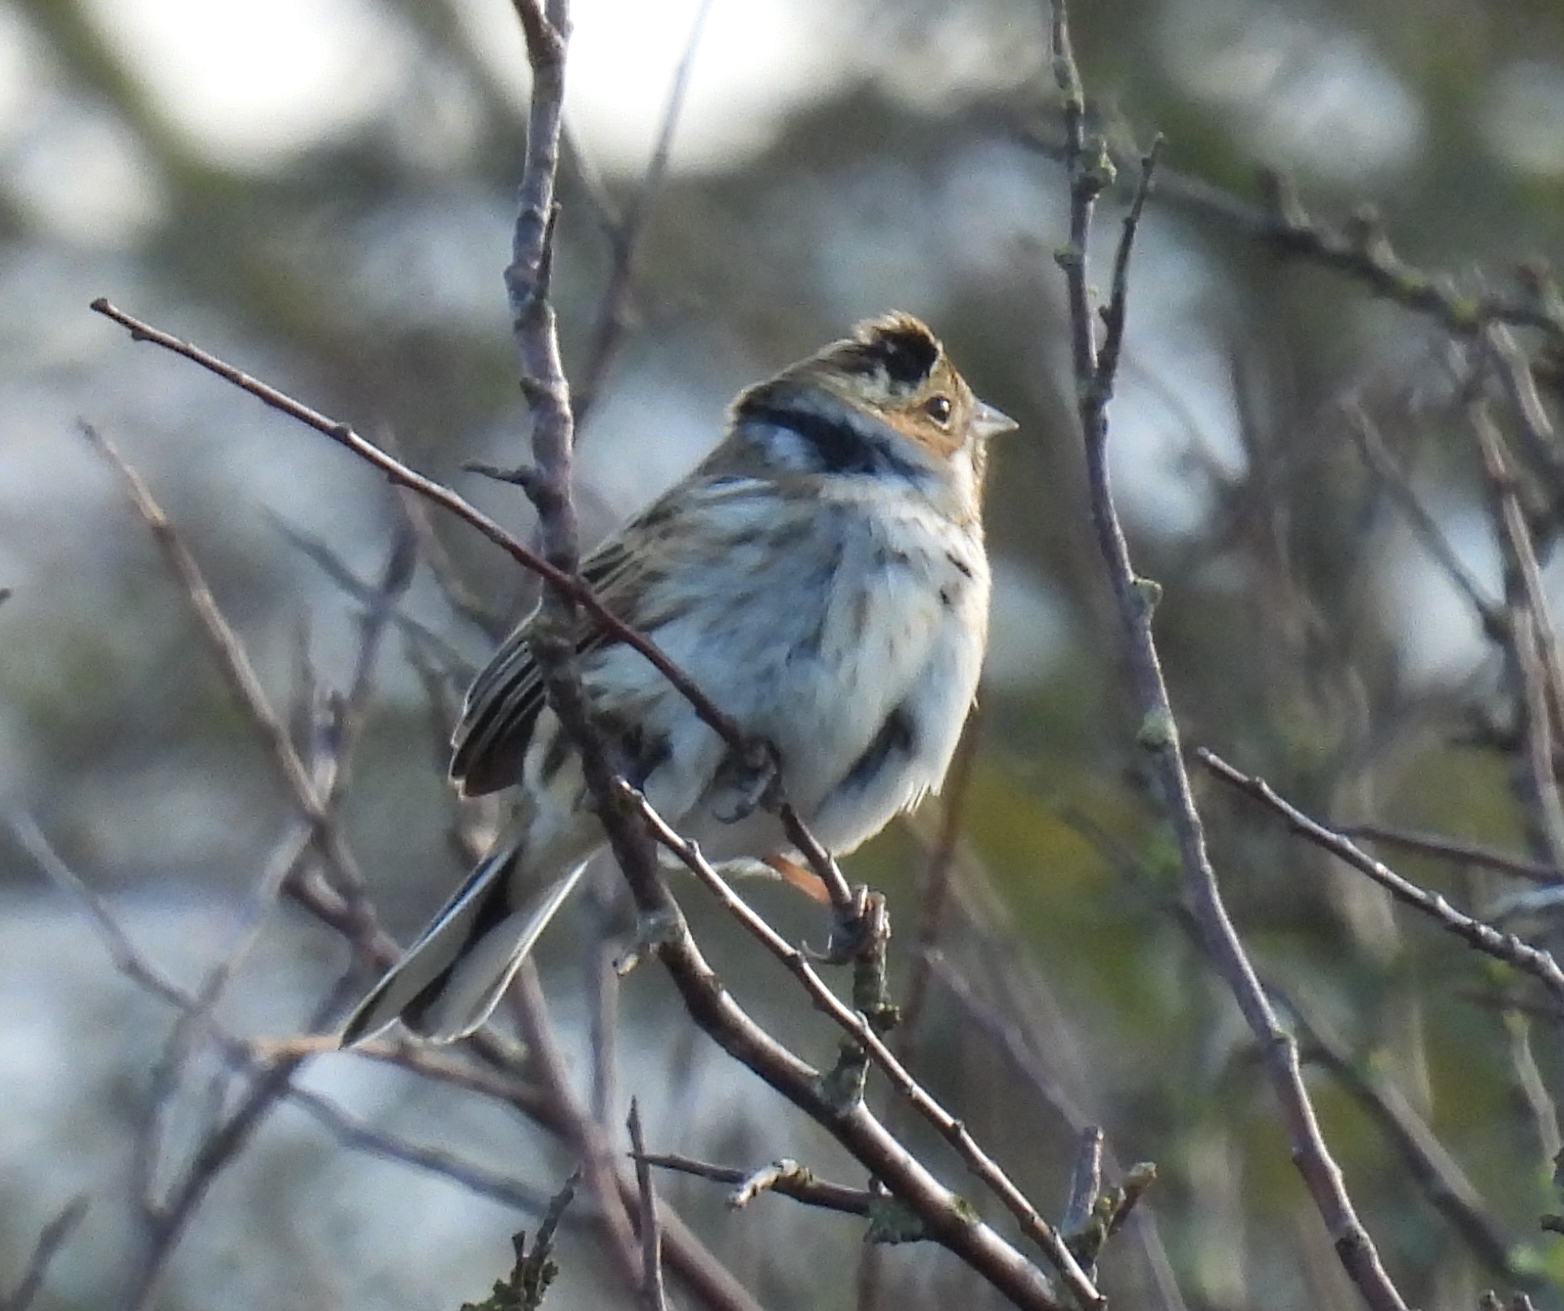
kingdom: Animalia
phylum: Chordata
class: Aves
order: Passeriformes
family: Emberizidae
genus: Emberiza
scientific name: Emberiza schoeniclus
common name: Reed bunting
